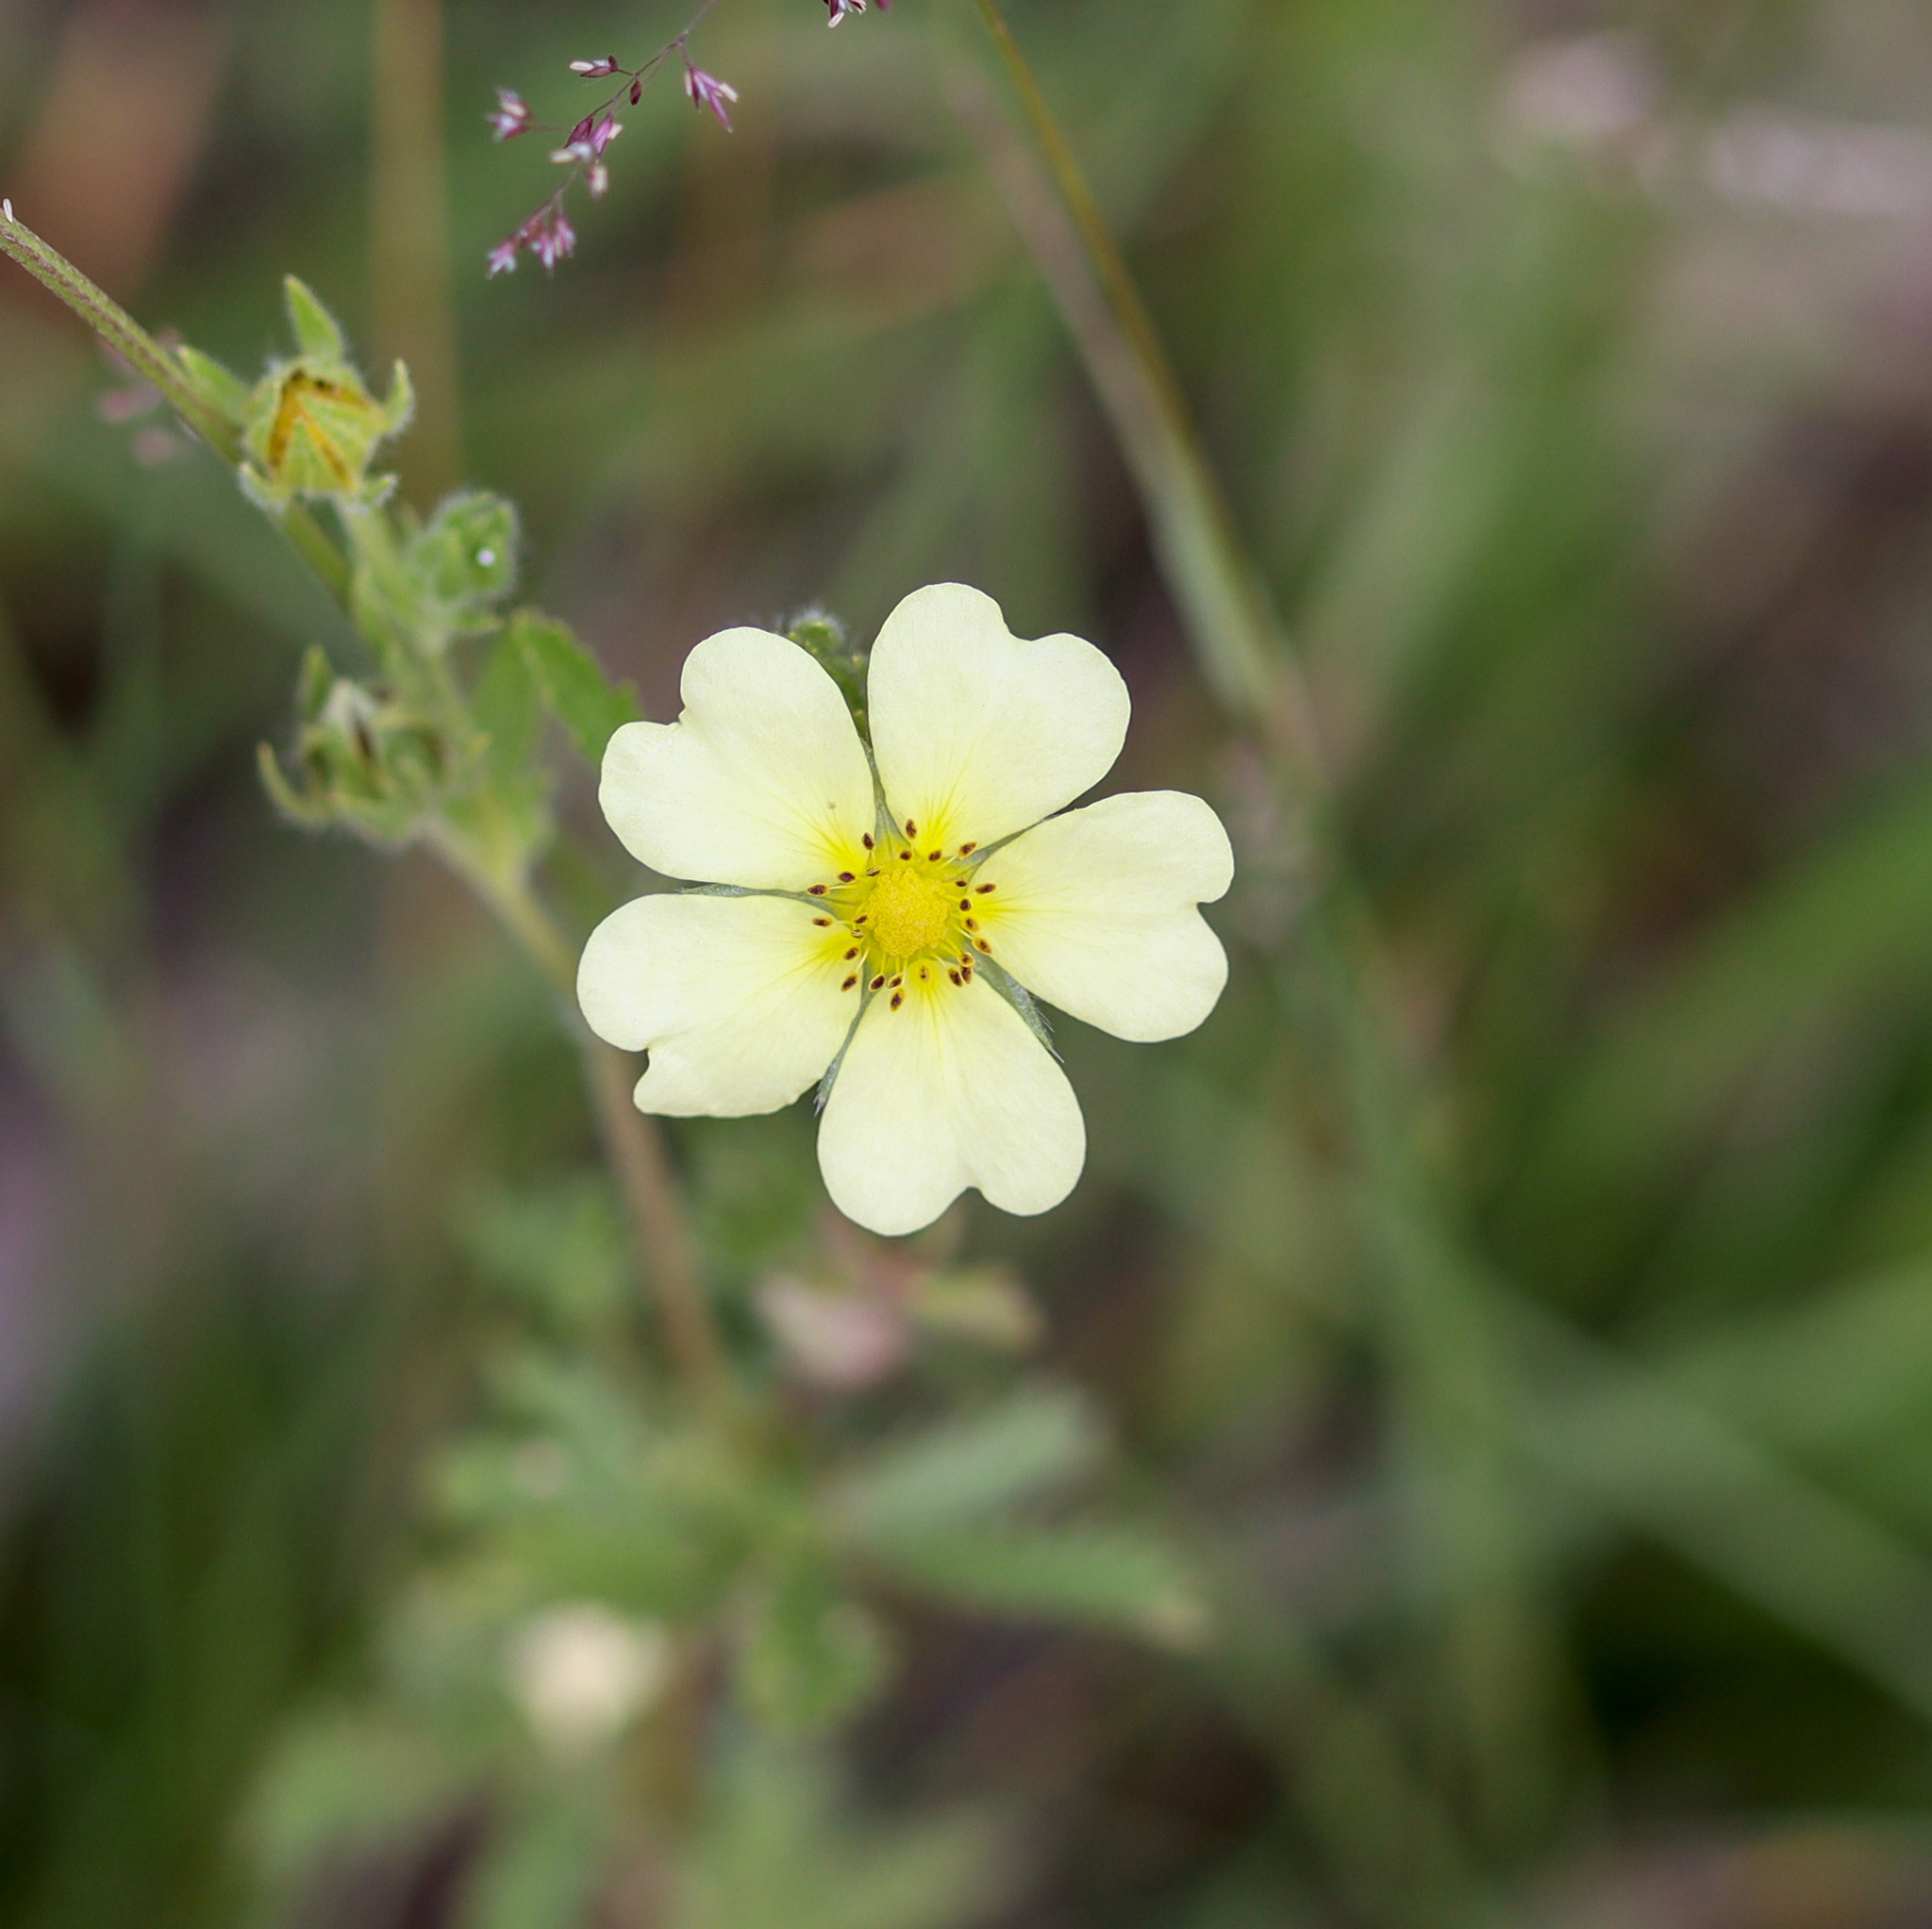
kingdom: Plantae
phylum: Tracheophyta
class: Magnoliopsida
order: Rosales
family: Rosaceae
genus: Potentilla
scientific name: Potentilla recta
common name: Sulphur cinquefoil
